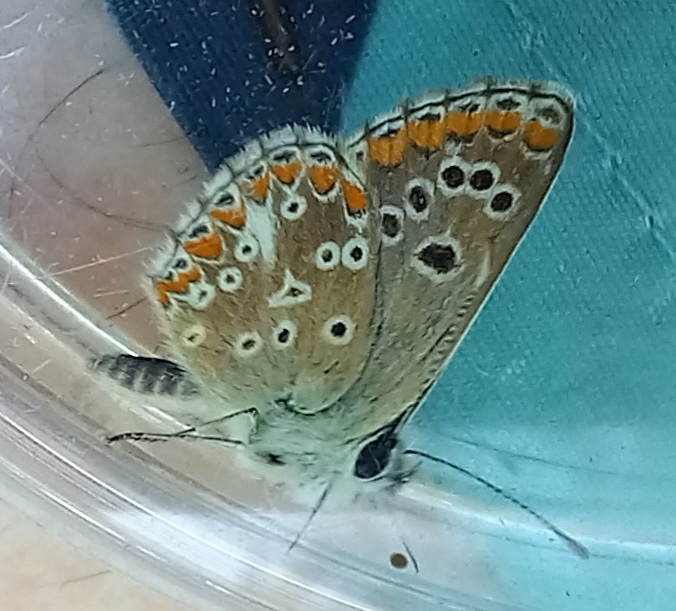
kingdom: Animalia
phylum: Arthropoda
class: Insecta
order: Lepidoptera
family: Lycaenidae
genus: Aricia
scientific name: Aricia cramera
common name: Eschscholtz´s brown  argus
